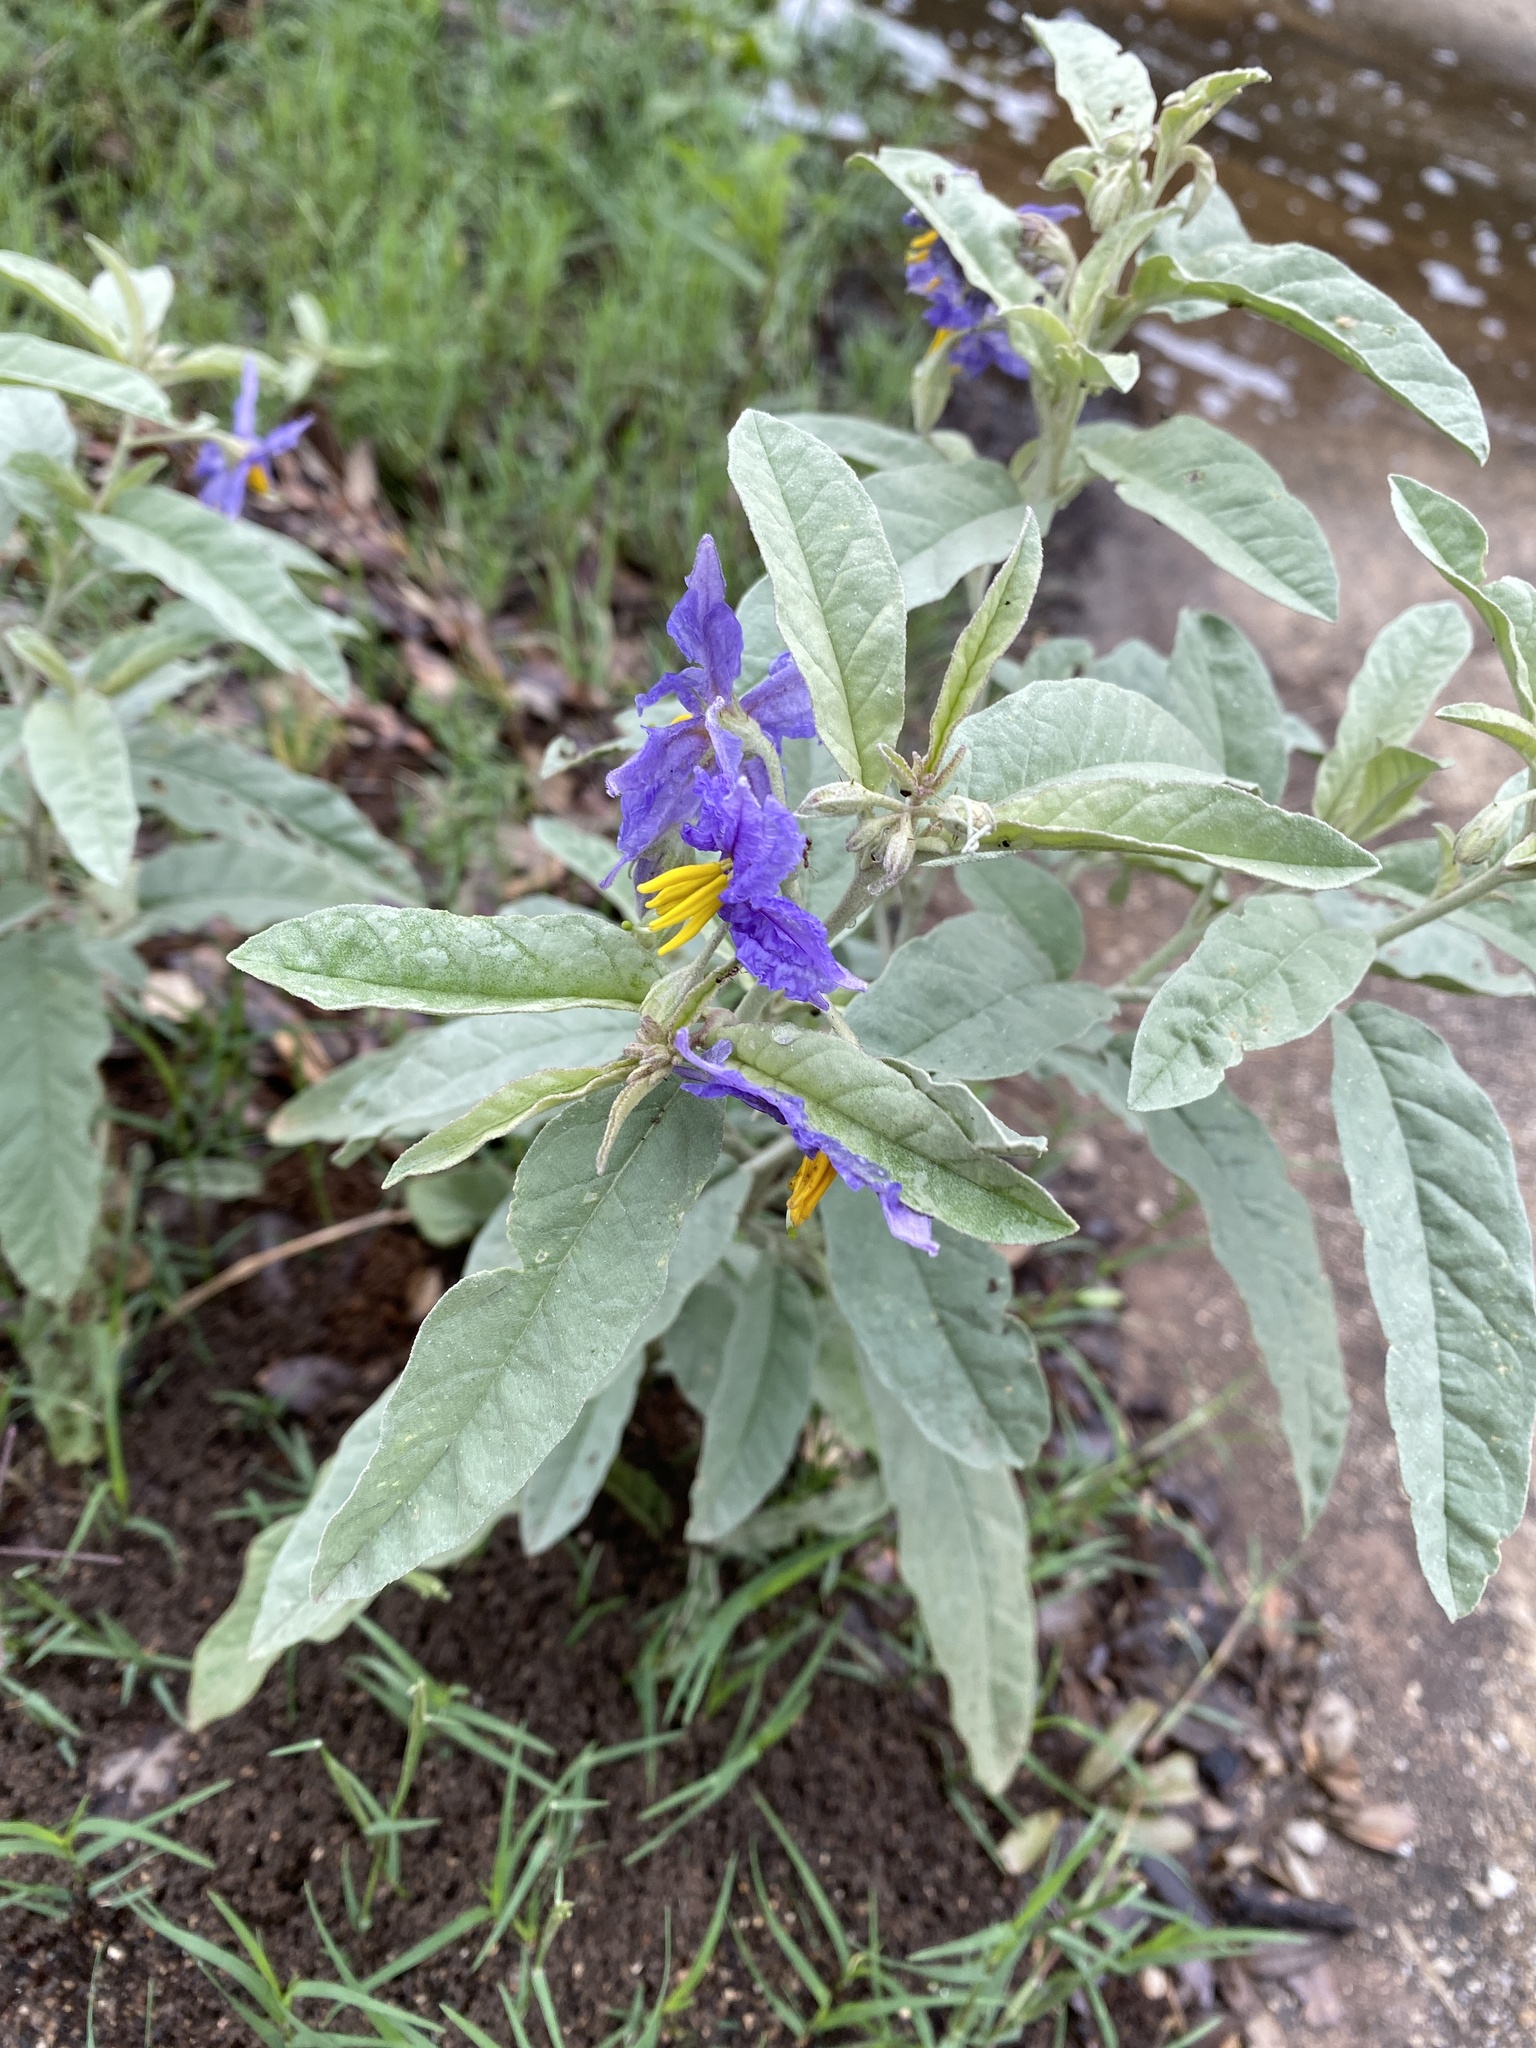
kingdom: Plantae
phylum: Tracheophyta
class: Magnoliopsida
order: Solanales
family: Solanaceae
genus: Solanum
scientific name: Solanum elaeagnifolium
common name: Silverleaf nightshade
